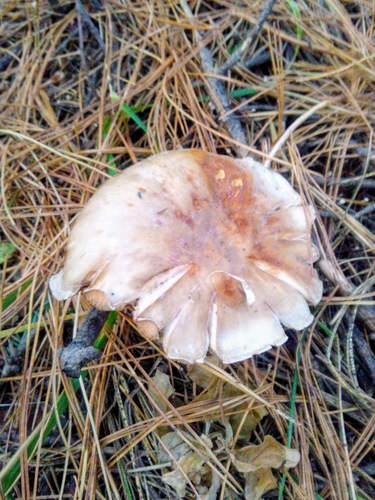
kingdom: Fungi
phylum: Basidiomycota
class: Agaricomycetes
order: Agaricales
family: Tricholomataceae
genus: Clitocybe
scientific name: Clitocybe nebularis
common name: Clouded agaric
